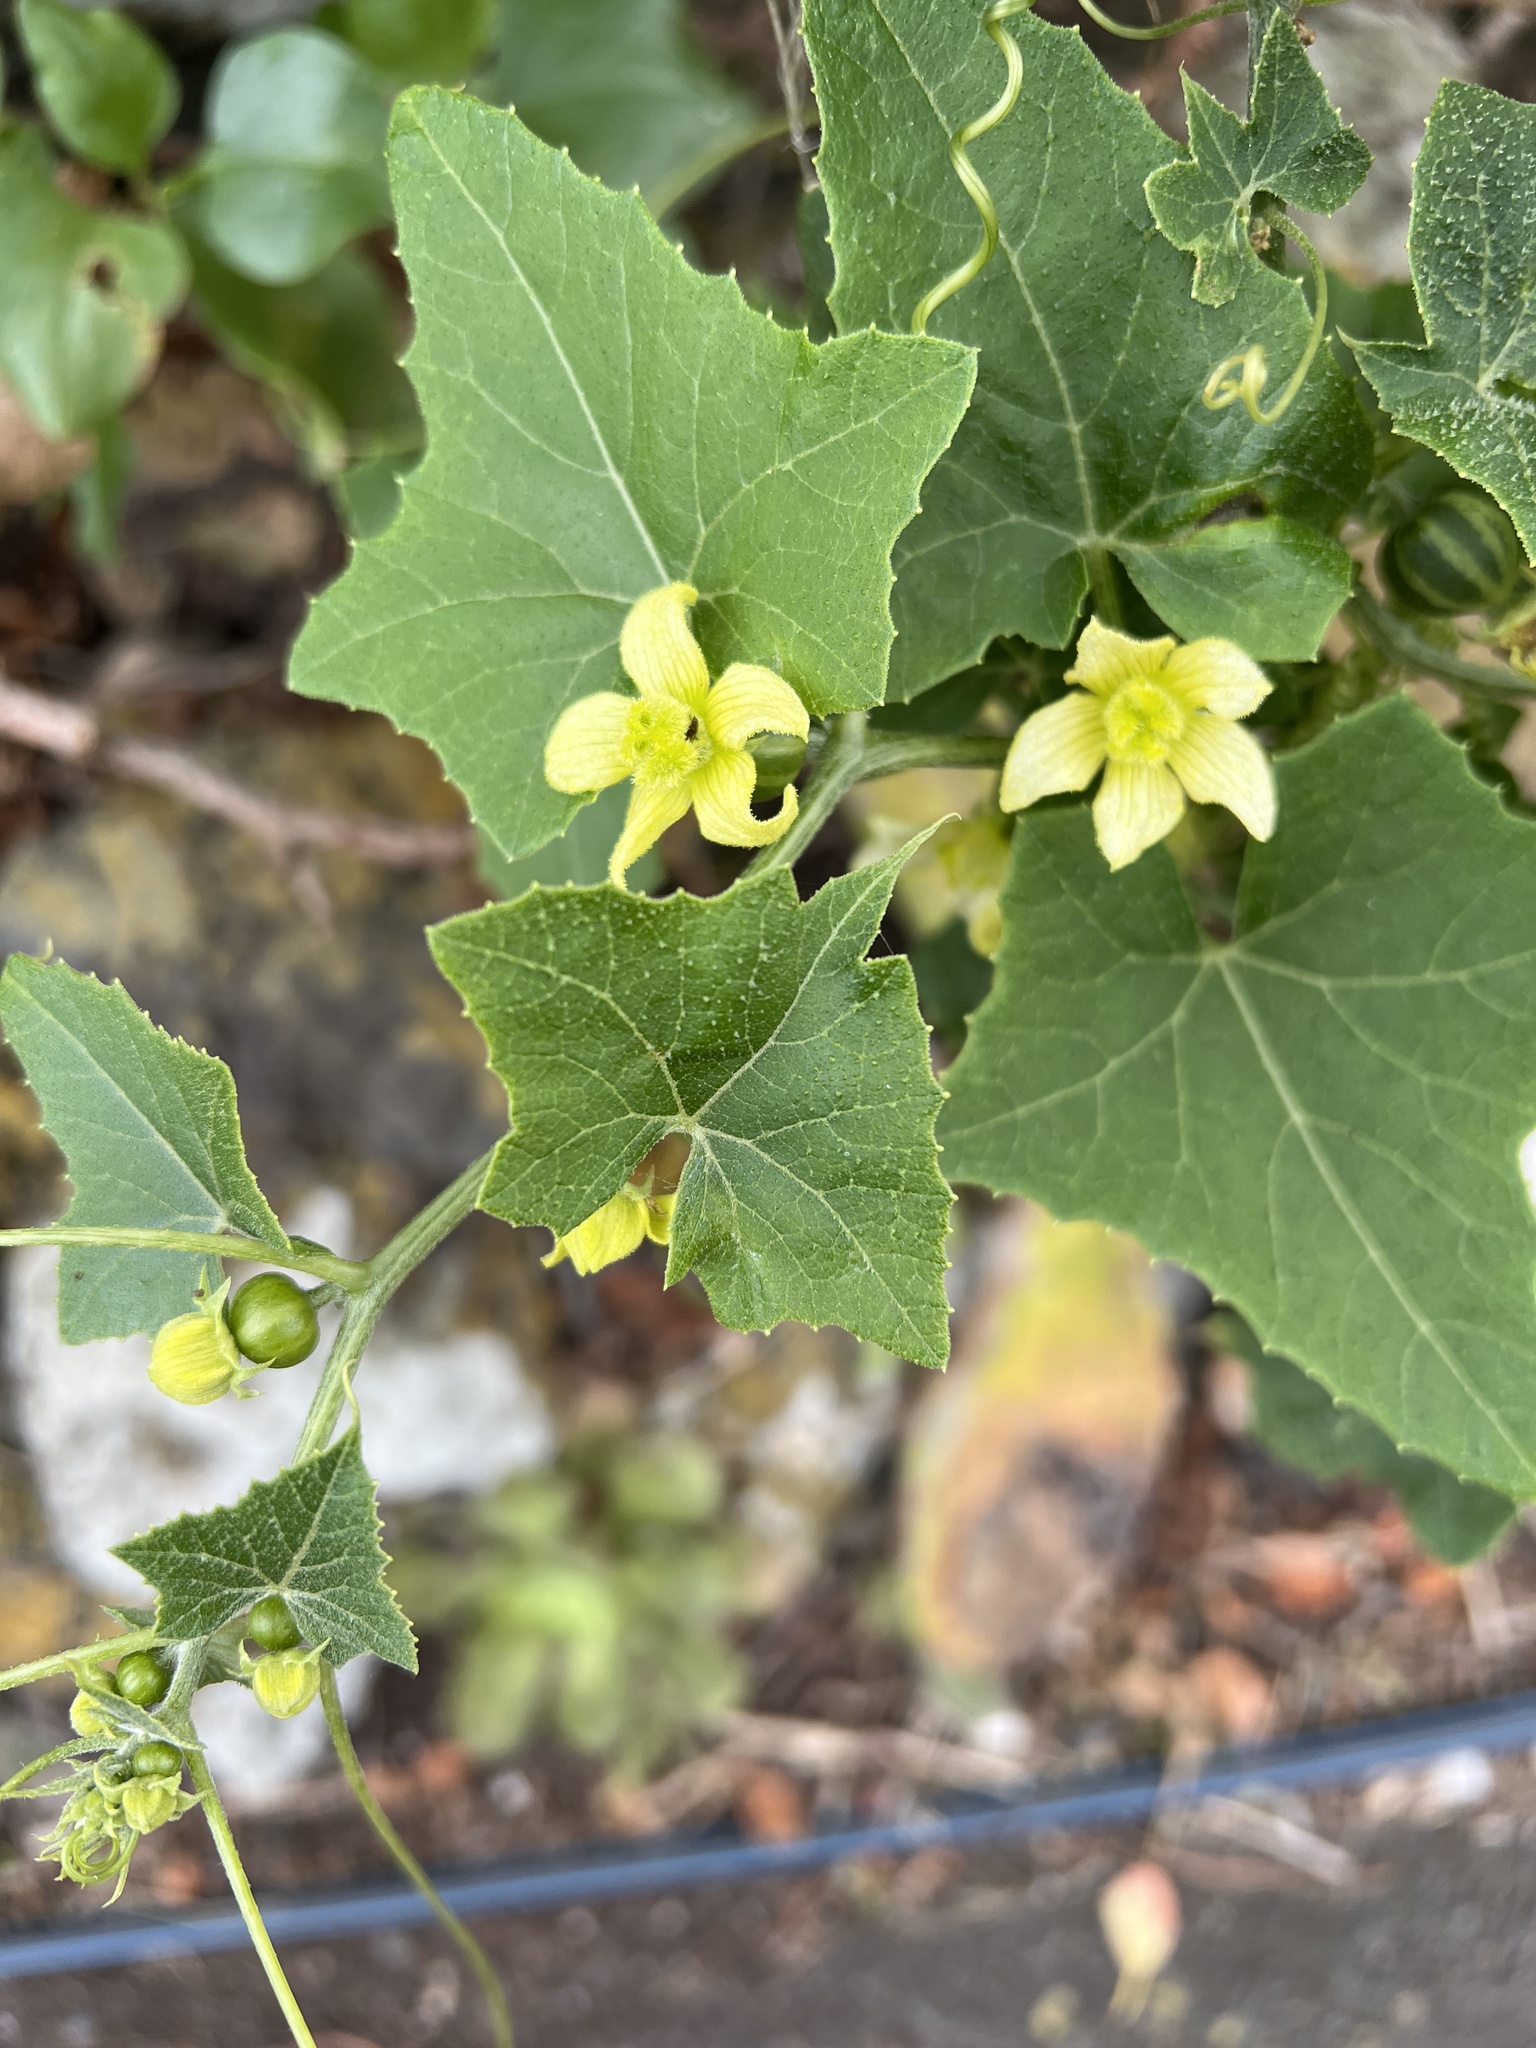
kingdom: Plantae
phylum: Tracheophyta
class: Magnoliopsida
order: Cucurbitales
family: Cucurbitaceae
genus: Bryonia
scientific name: Bryonia verrucosa
